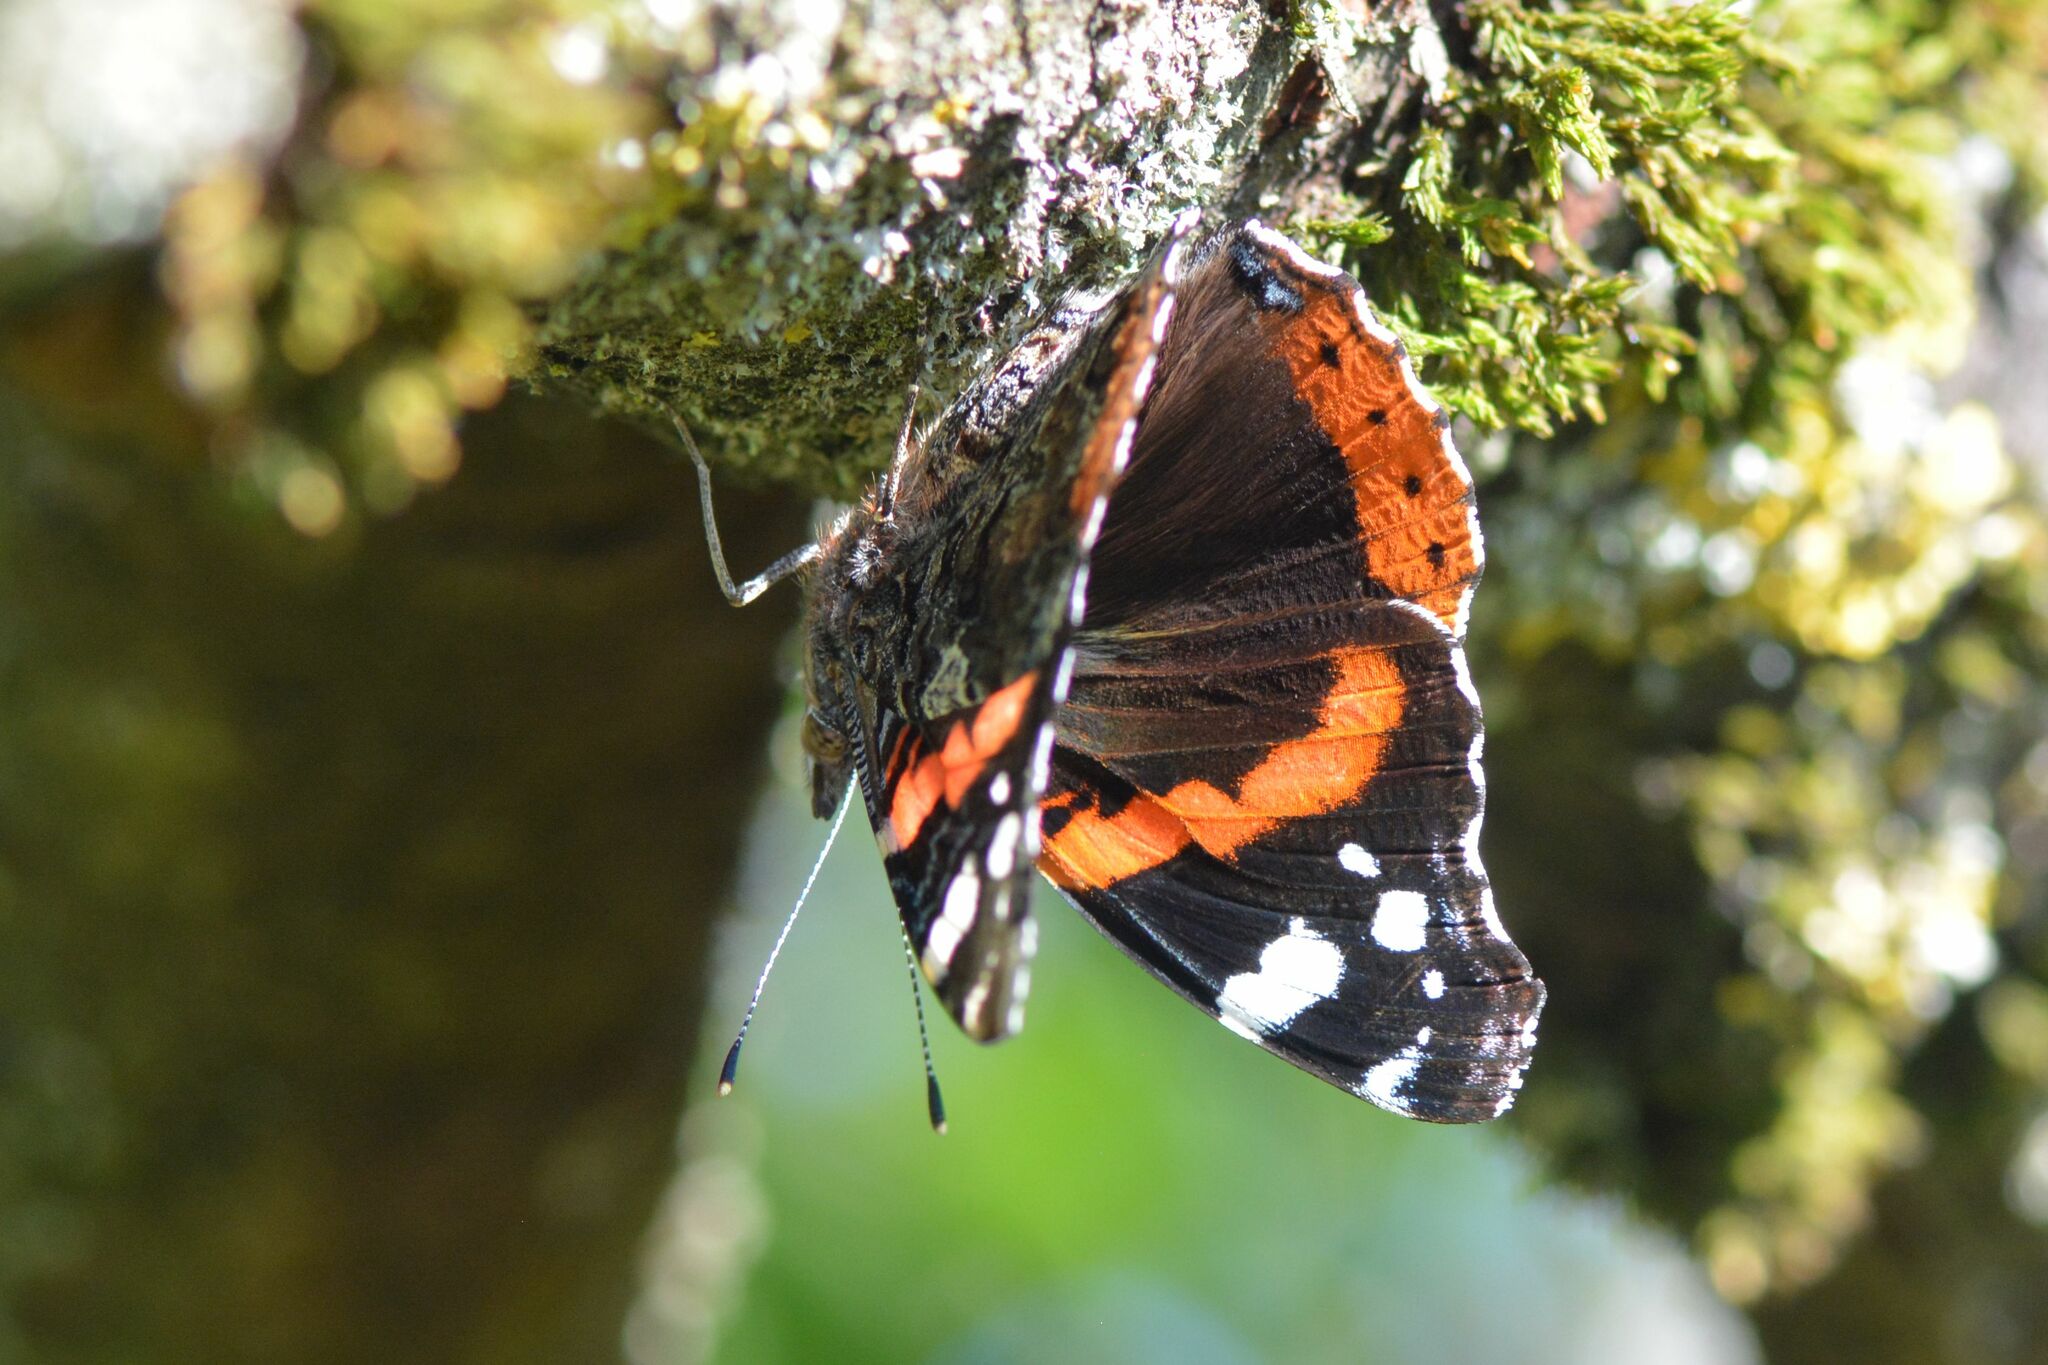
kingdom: Animalia
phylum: Arthropoda
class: Insecta
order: Lepidoptera
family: Nymphalidae
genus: Vanessa
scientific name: Vanessa atalanta
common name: Red admiral
